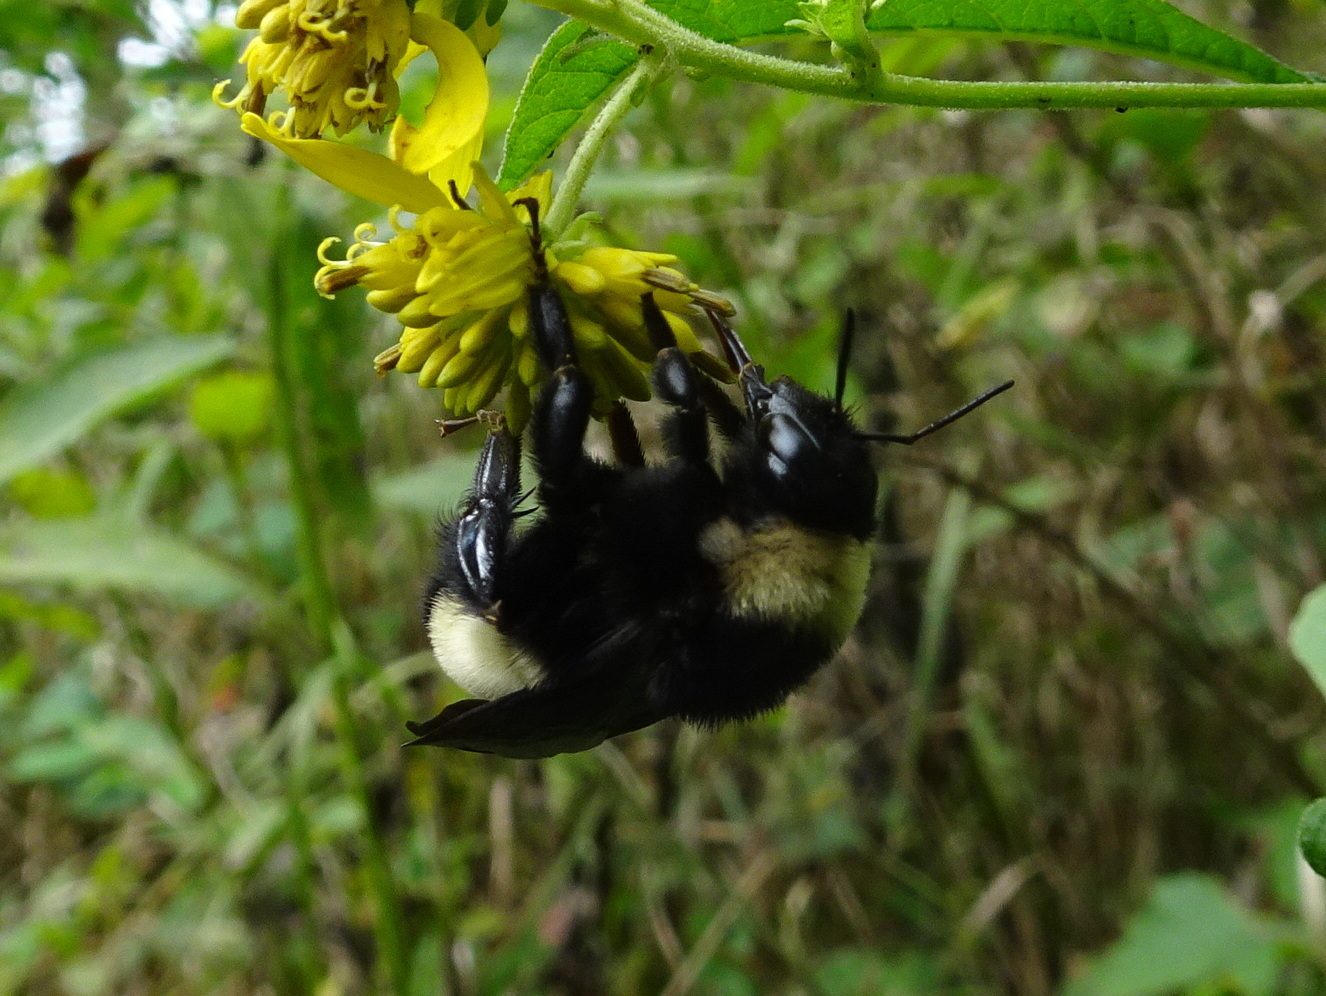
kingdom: Animalia
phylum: Arthropoda
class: Insecta
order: Hymenoptera
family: Apidae
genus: Bombus
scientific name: Bombus pensylvanicus
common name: Bumble bee
